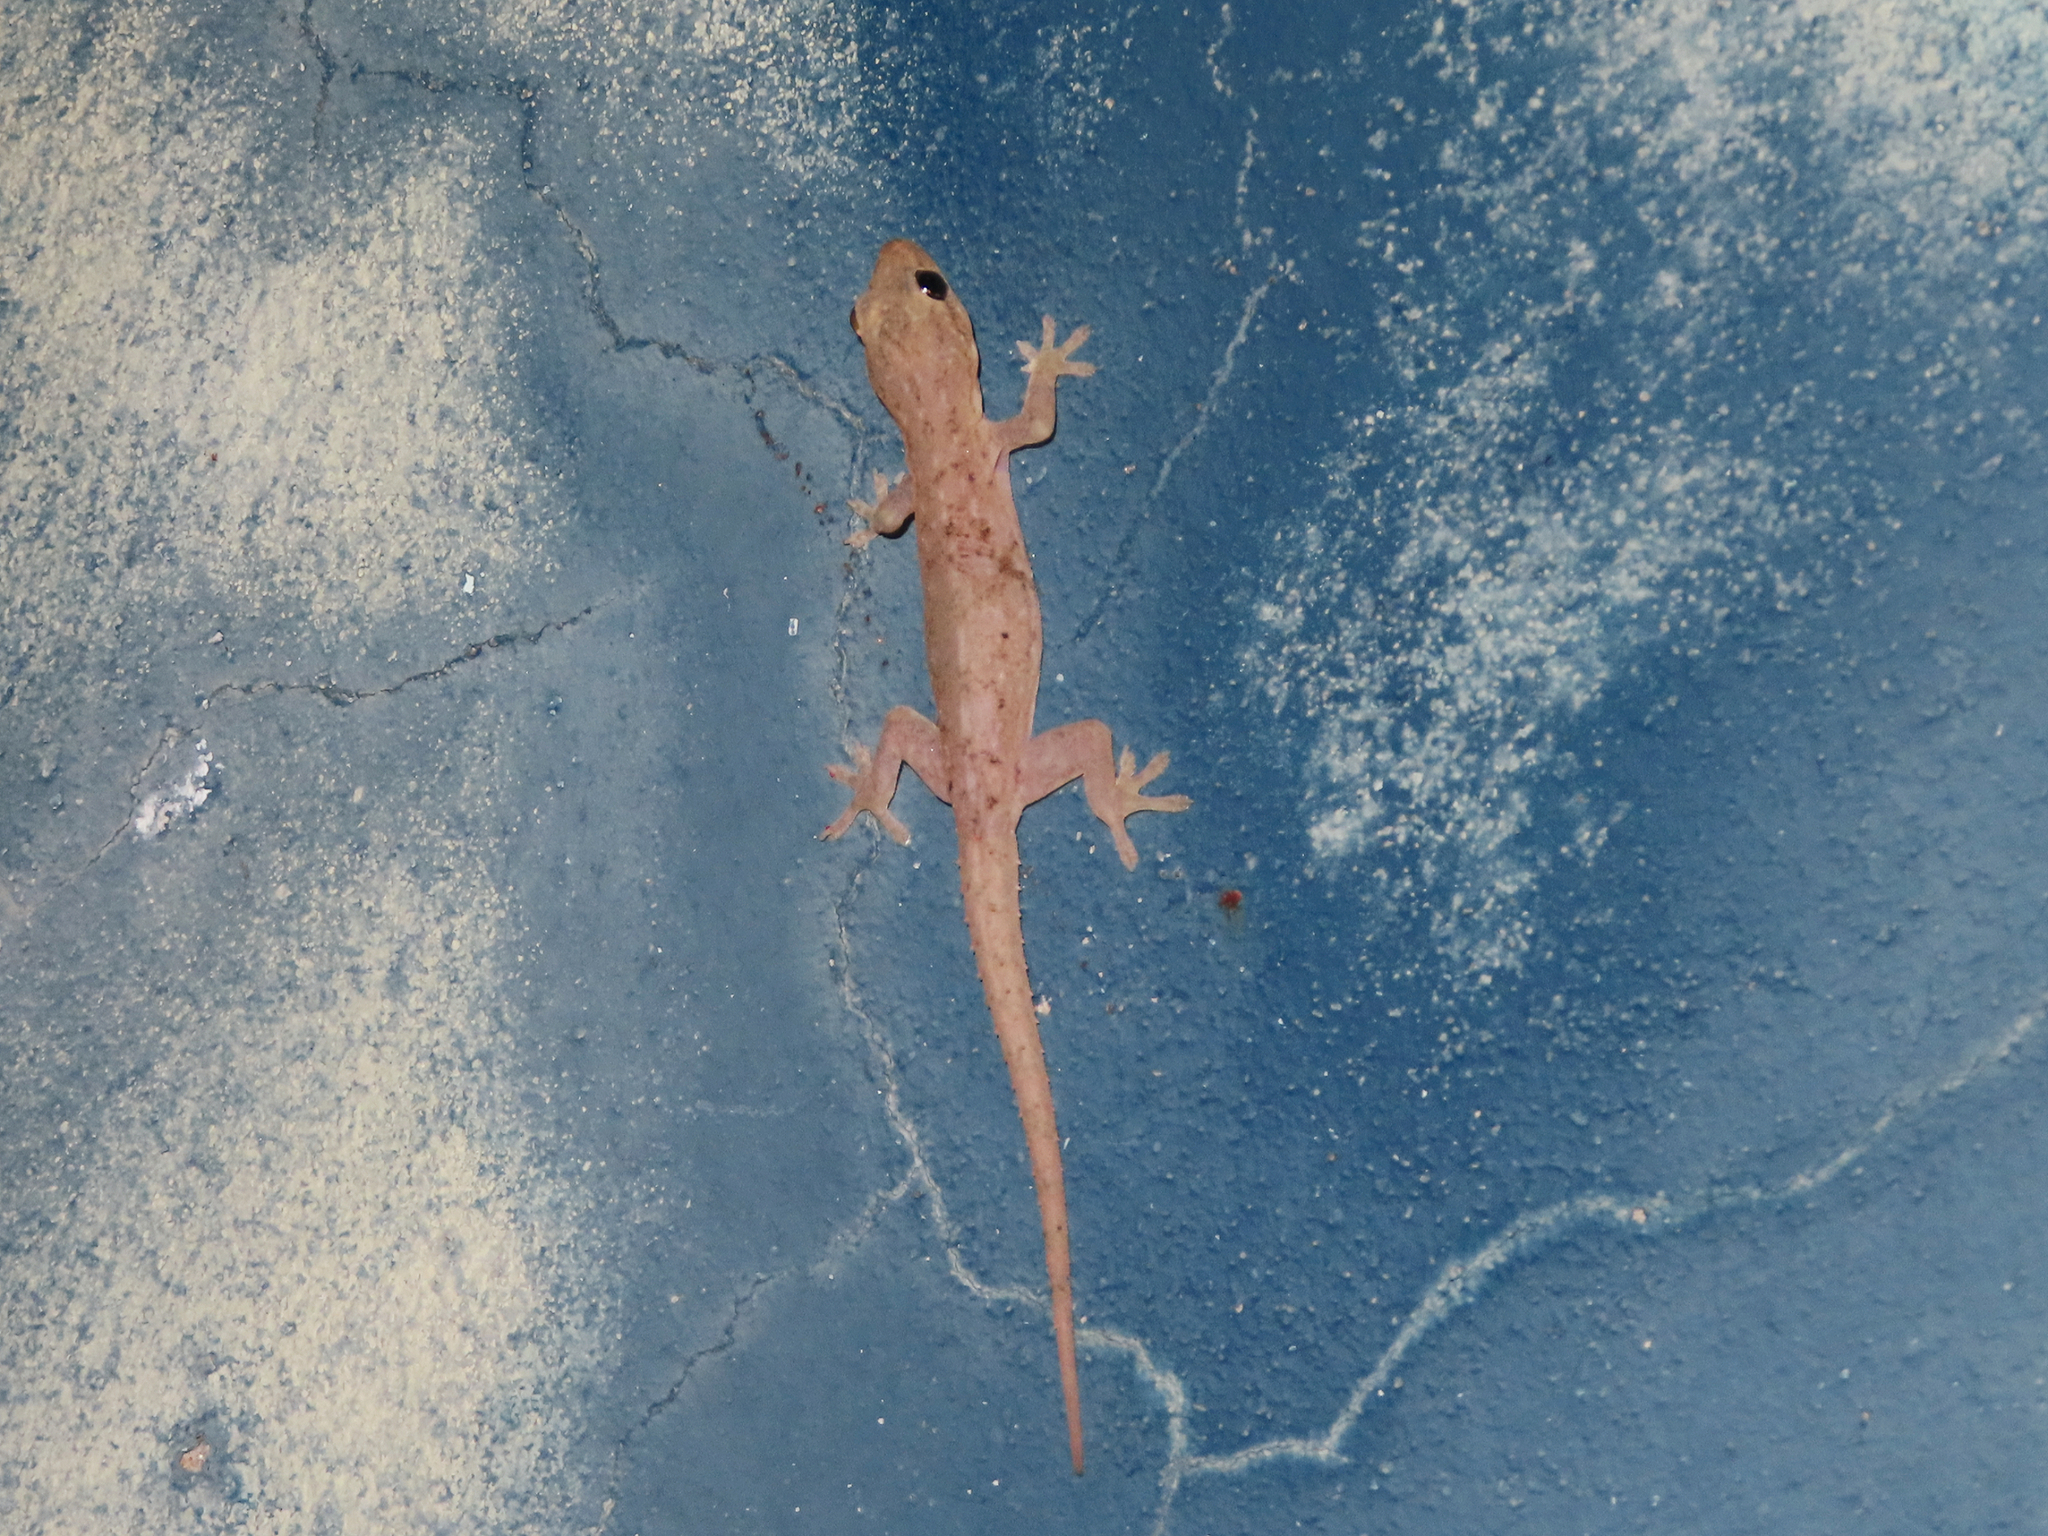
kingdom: Animalia
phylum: Chordata
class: Squamata
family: Gekkonidae
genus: Hemidactylus
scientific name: Hemidactylus frenatus
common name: Common house gecko
